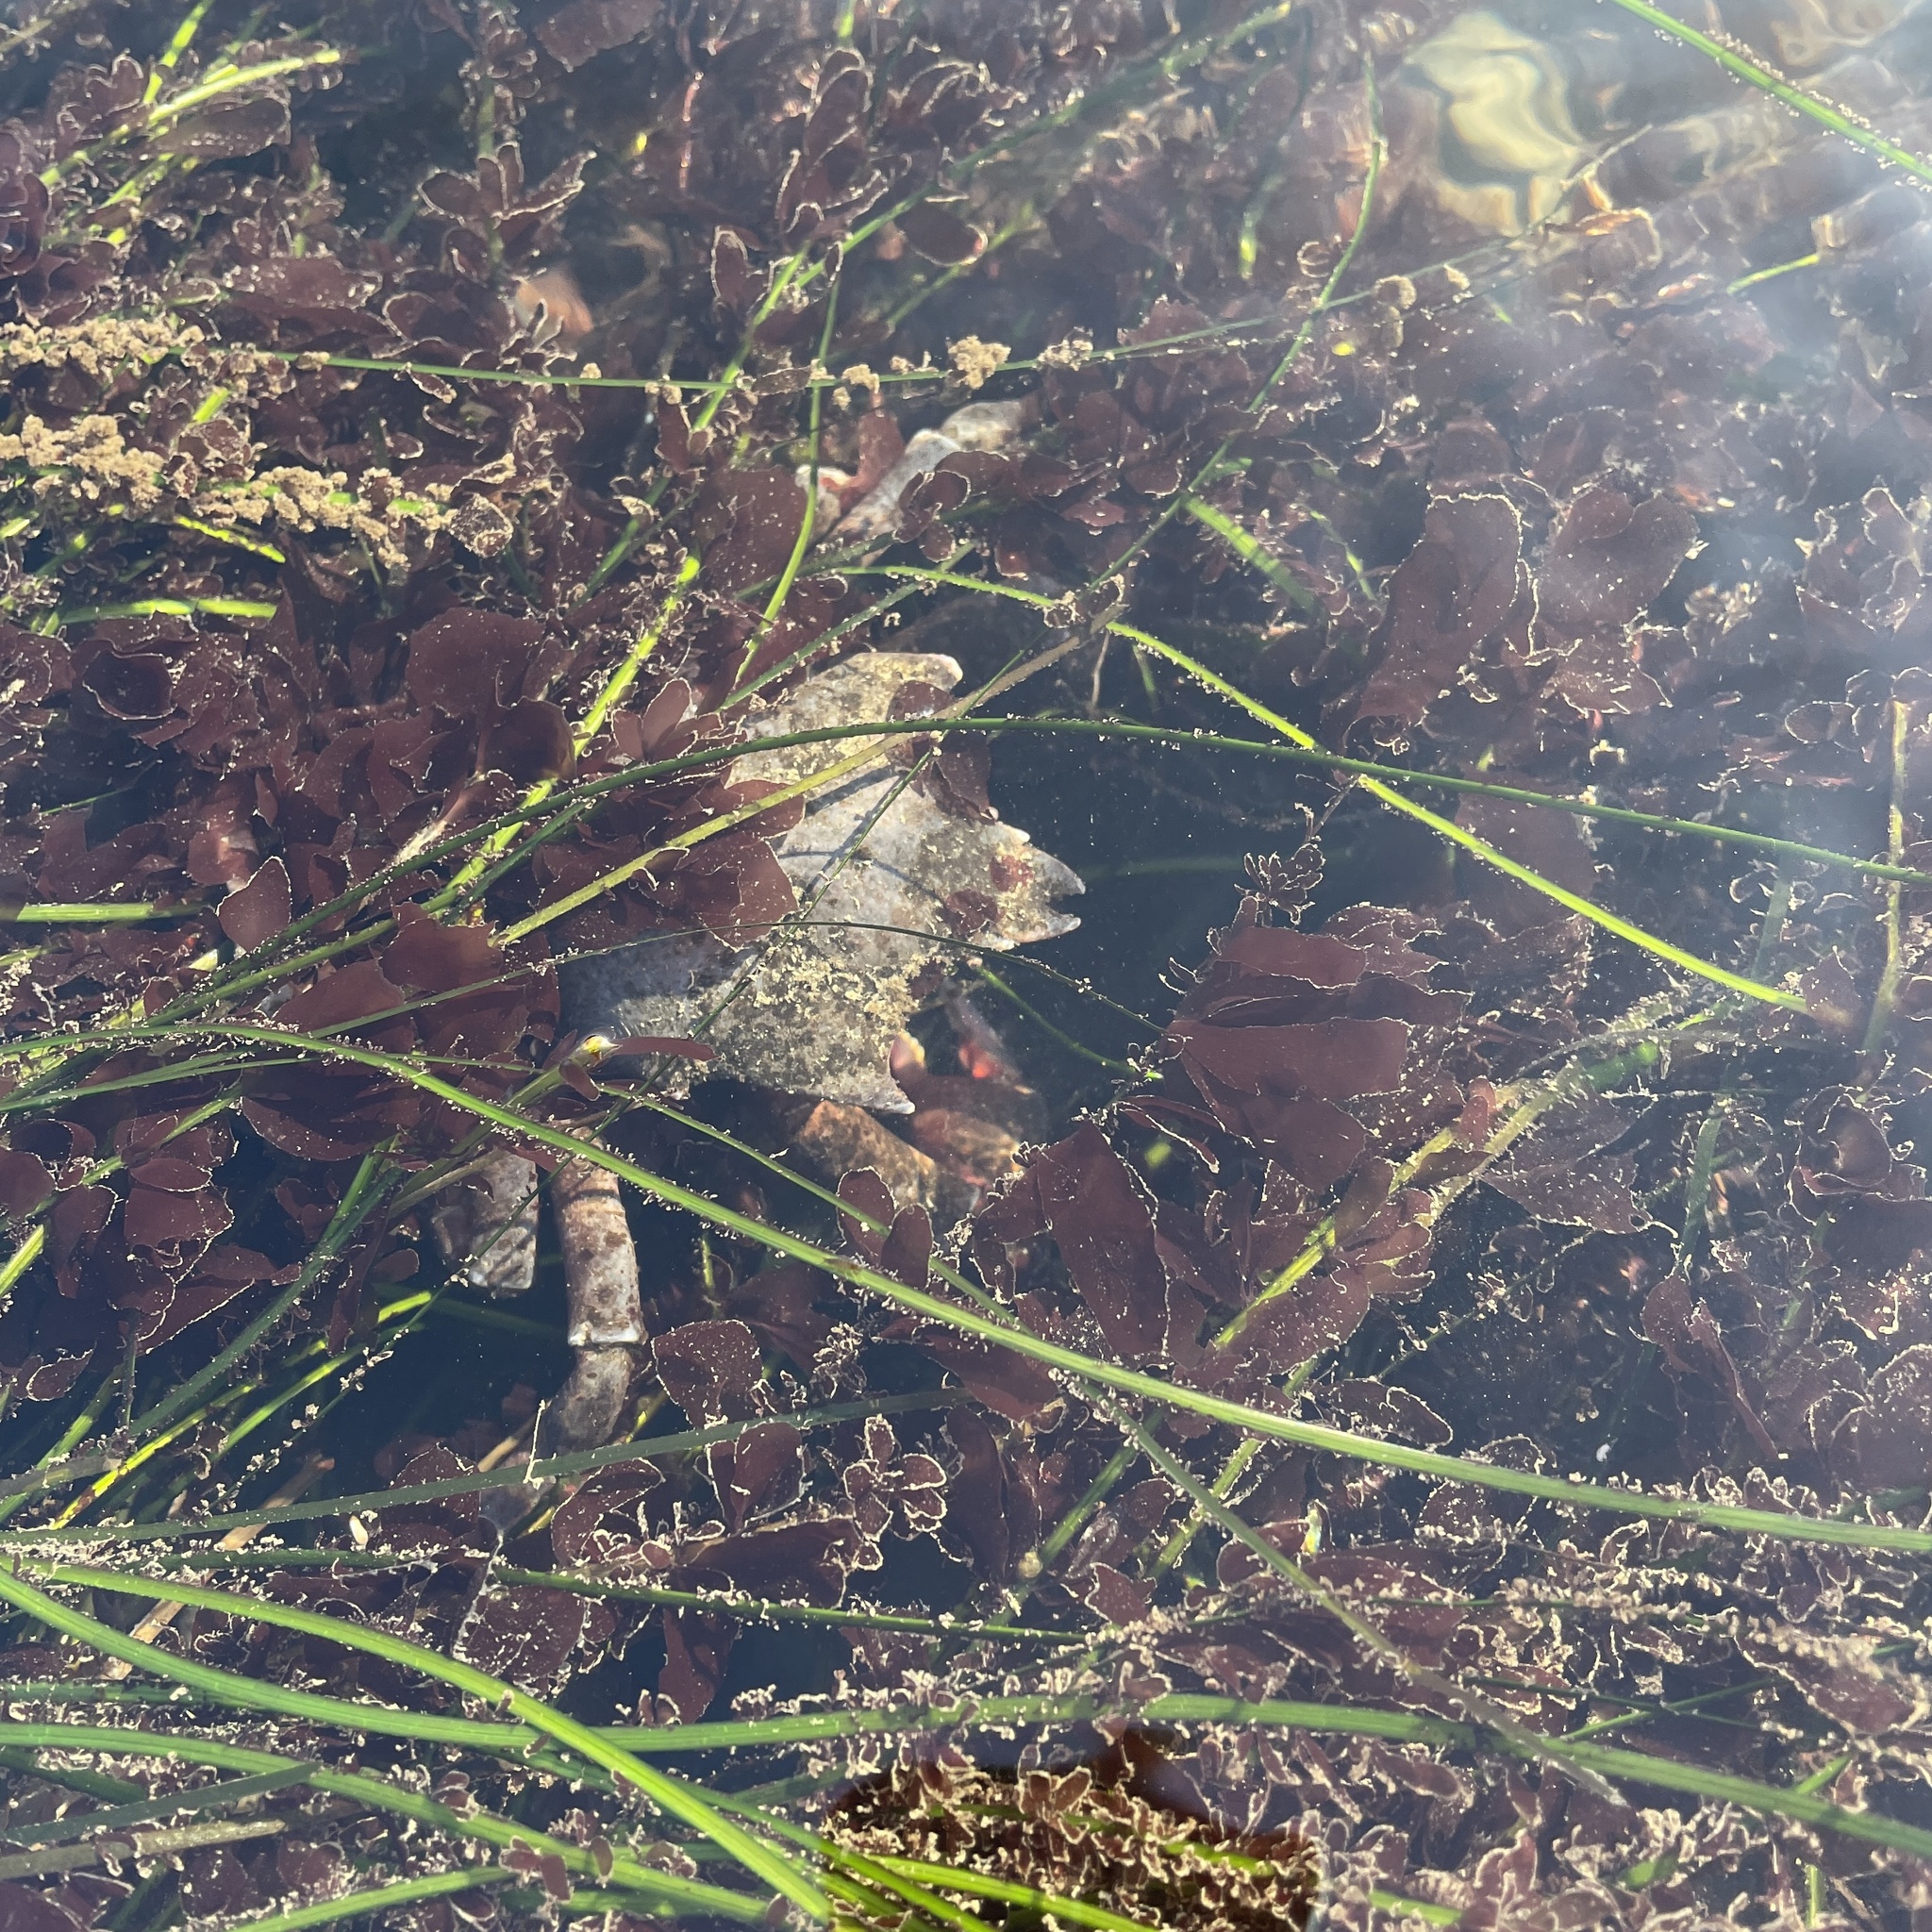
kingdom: Animalia
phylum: Arthropoda
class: Malacostraca
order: Decapoda
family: Epialtidae
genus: Pugettia
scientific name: Pugettia producta
